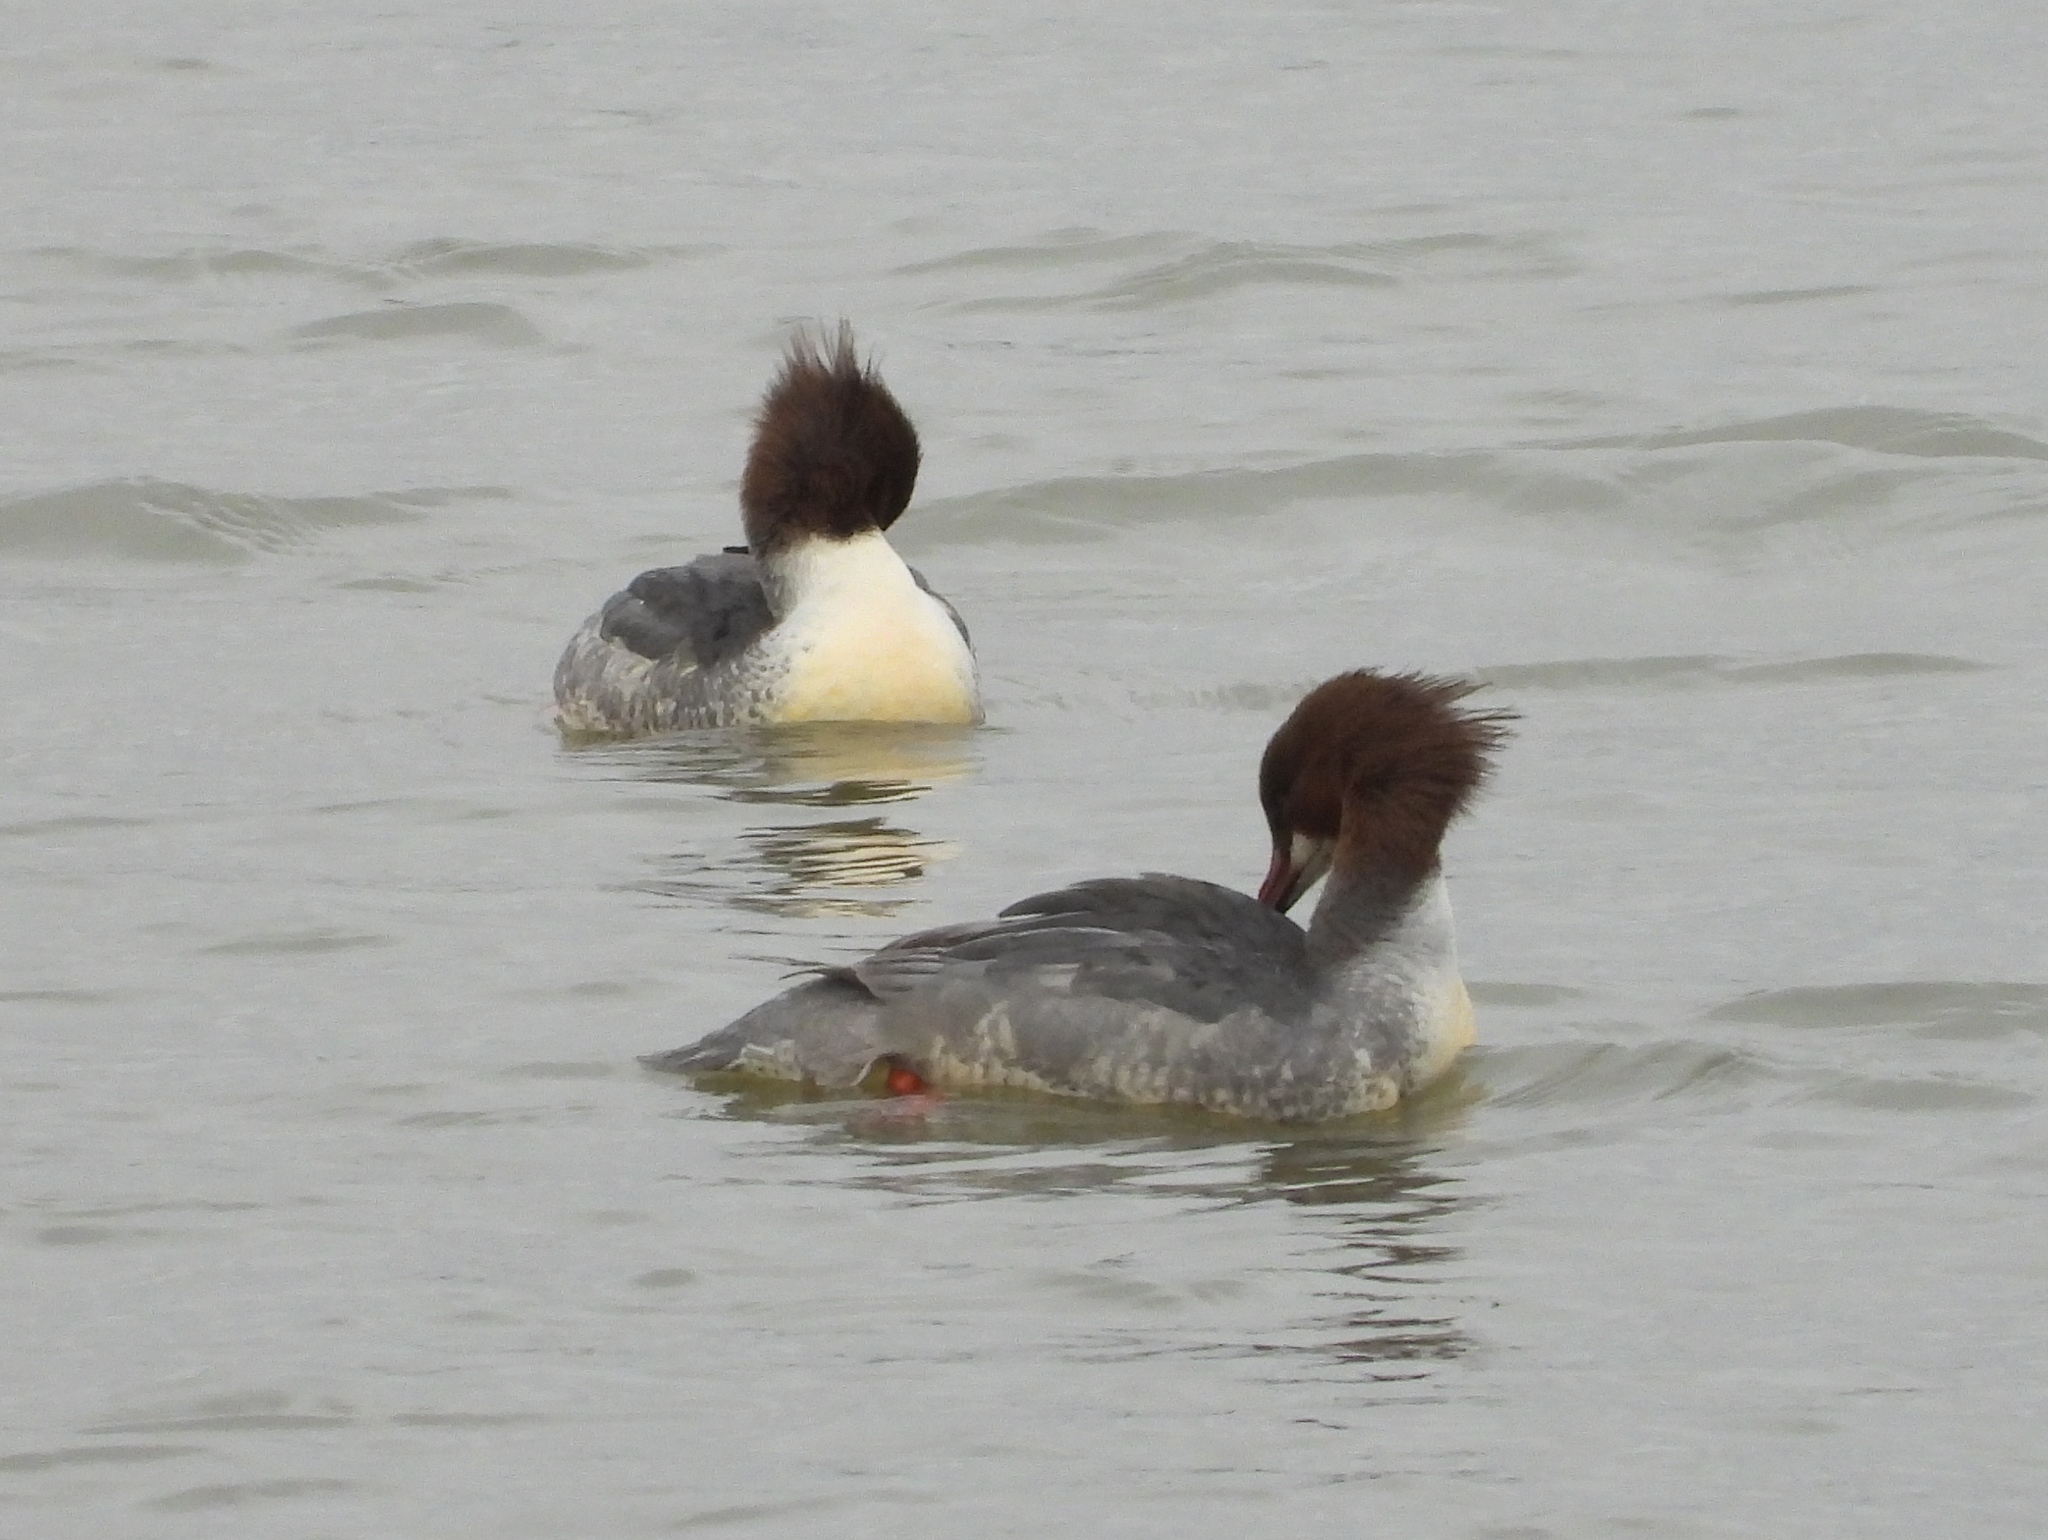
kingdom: Animalia
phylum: Chordata
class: Aves
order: Anseriformes
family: Anatidae
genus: Mergus
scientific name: Mergus merganser
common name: Common merganser
